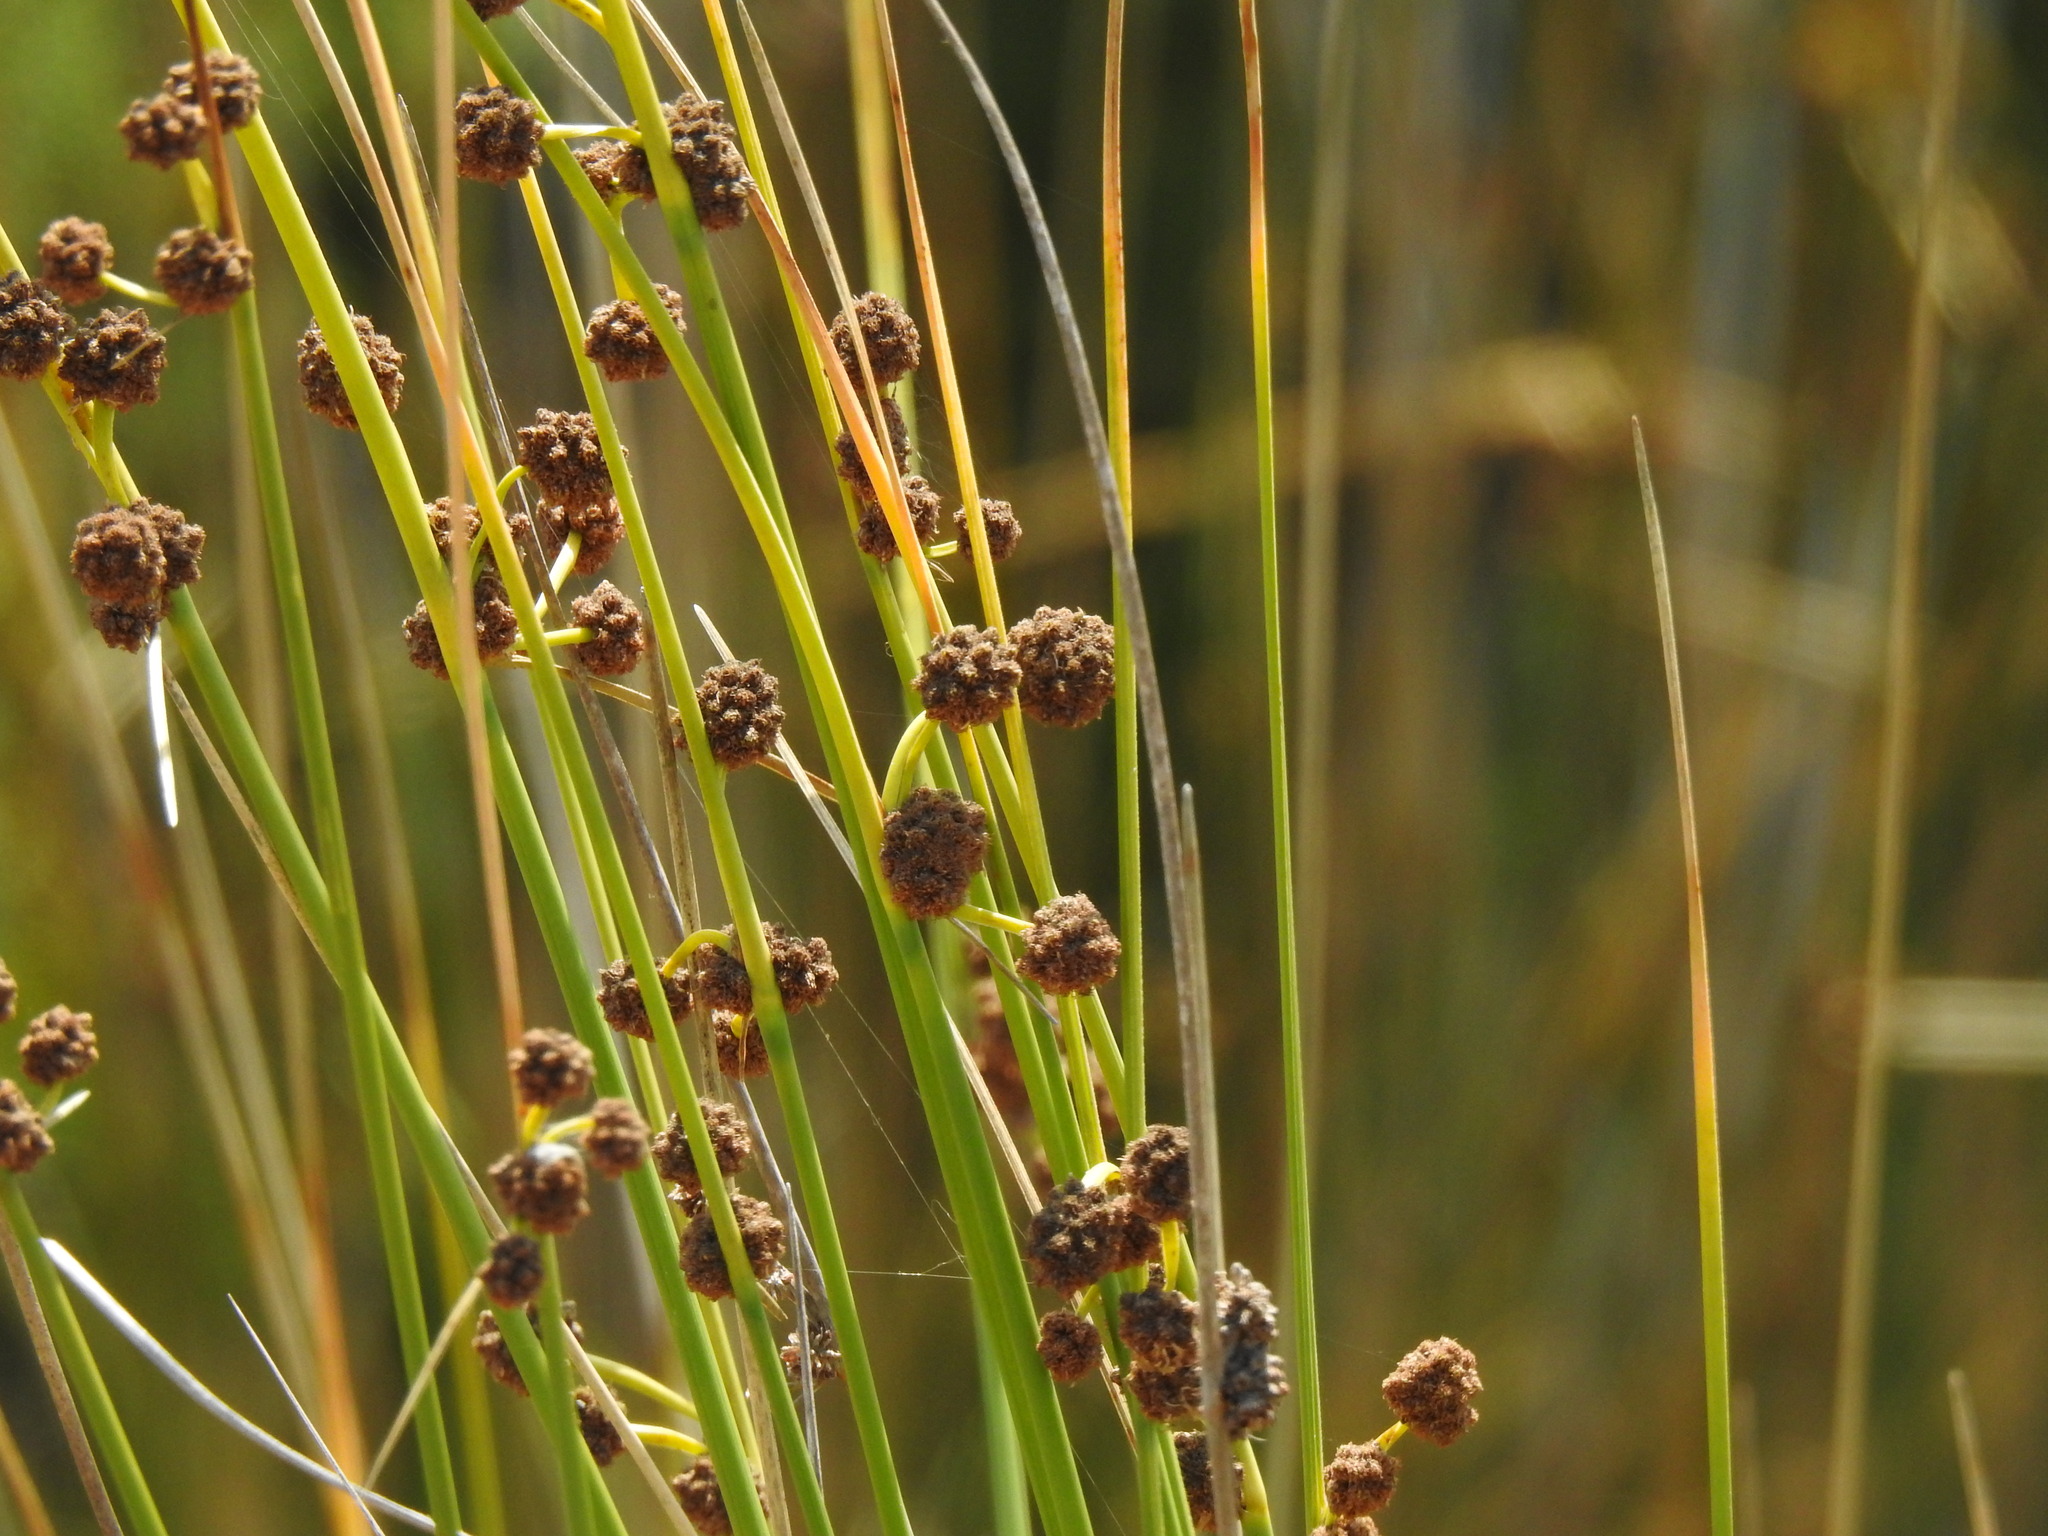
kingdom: Plantae
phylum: Tracheophyta
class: Liliopsida
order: Poales
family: Cyperaceae
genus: Scirpoides
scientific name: Scirpoides holoschoenus
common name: Round-headed club-rush
